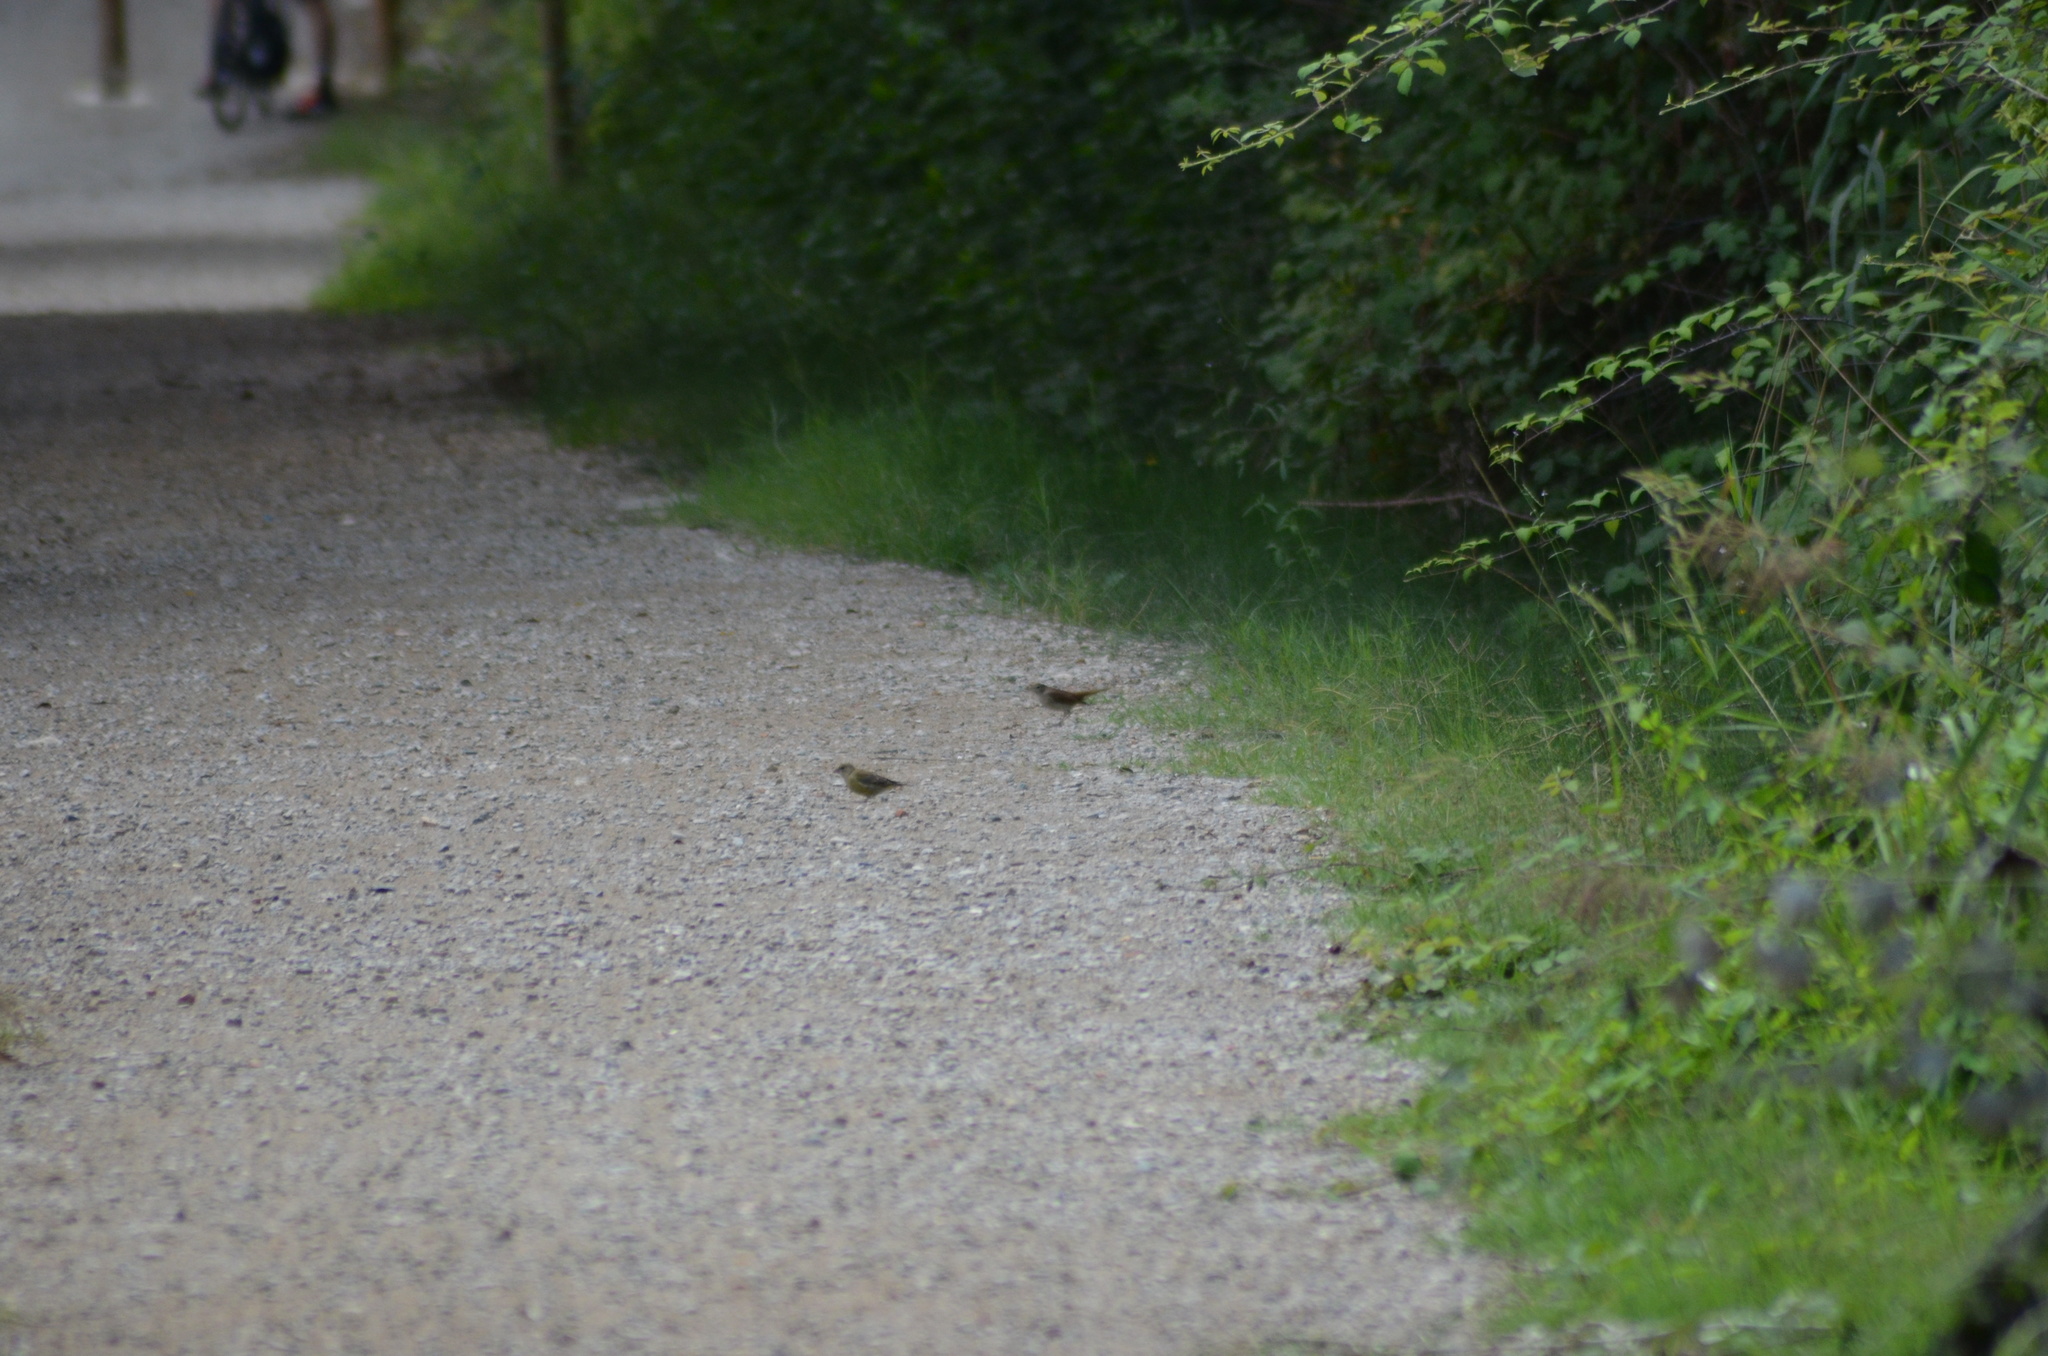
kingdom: Plantae
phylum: Tracheophyta
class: Liliopsida
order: Poales
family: Poaceae
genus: Chloris
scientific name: Chloris chloris
